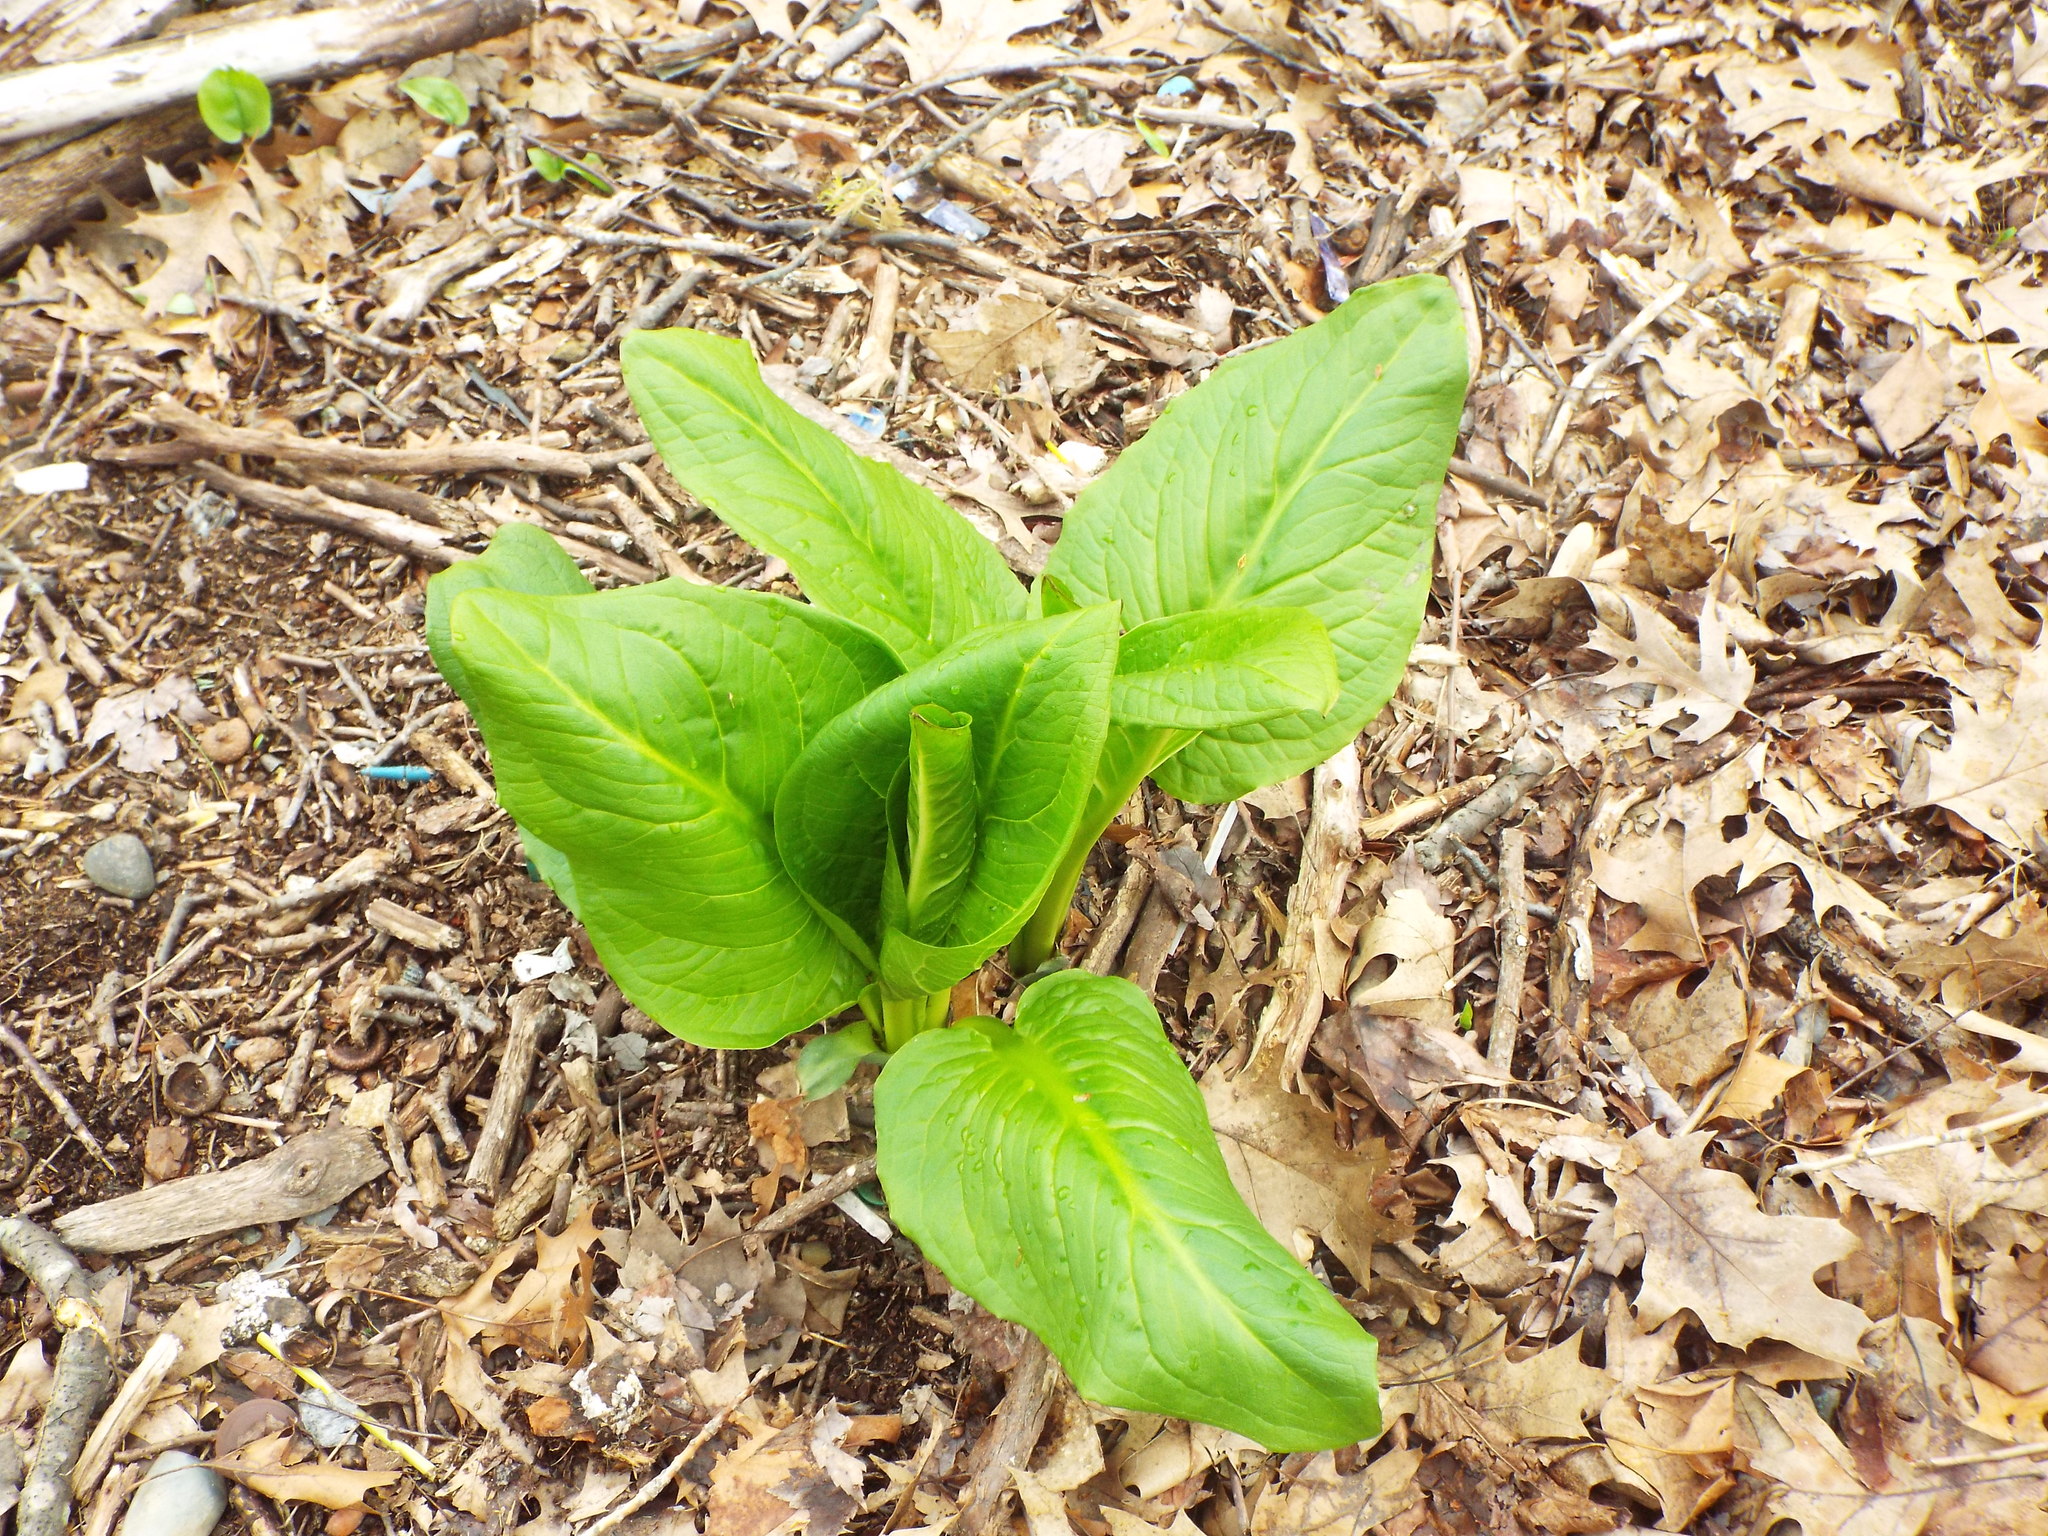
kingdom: Plantae
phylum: Tracheophyta
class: Liliopsida
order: Alismatales
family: Araceae
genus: Symplocarpus
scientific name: Symplocarpus foetidus
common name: Eastern skunk cabbage
